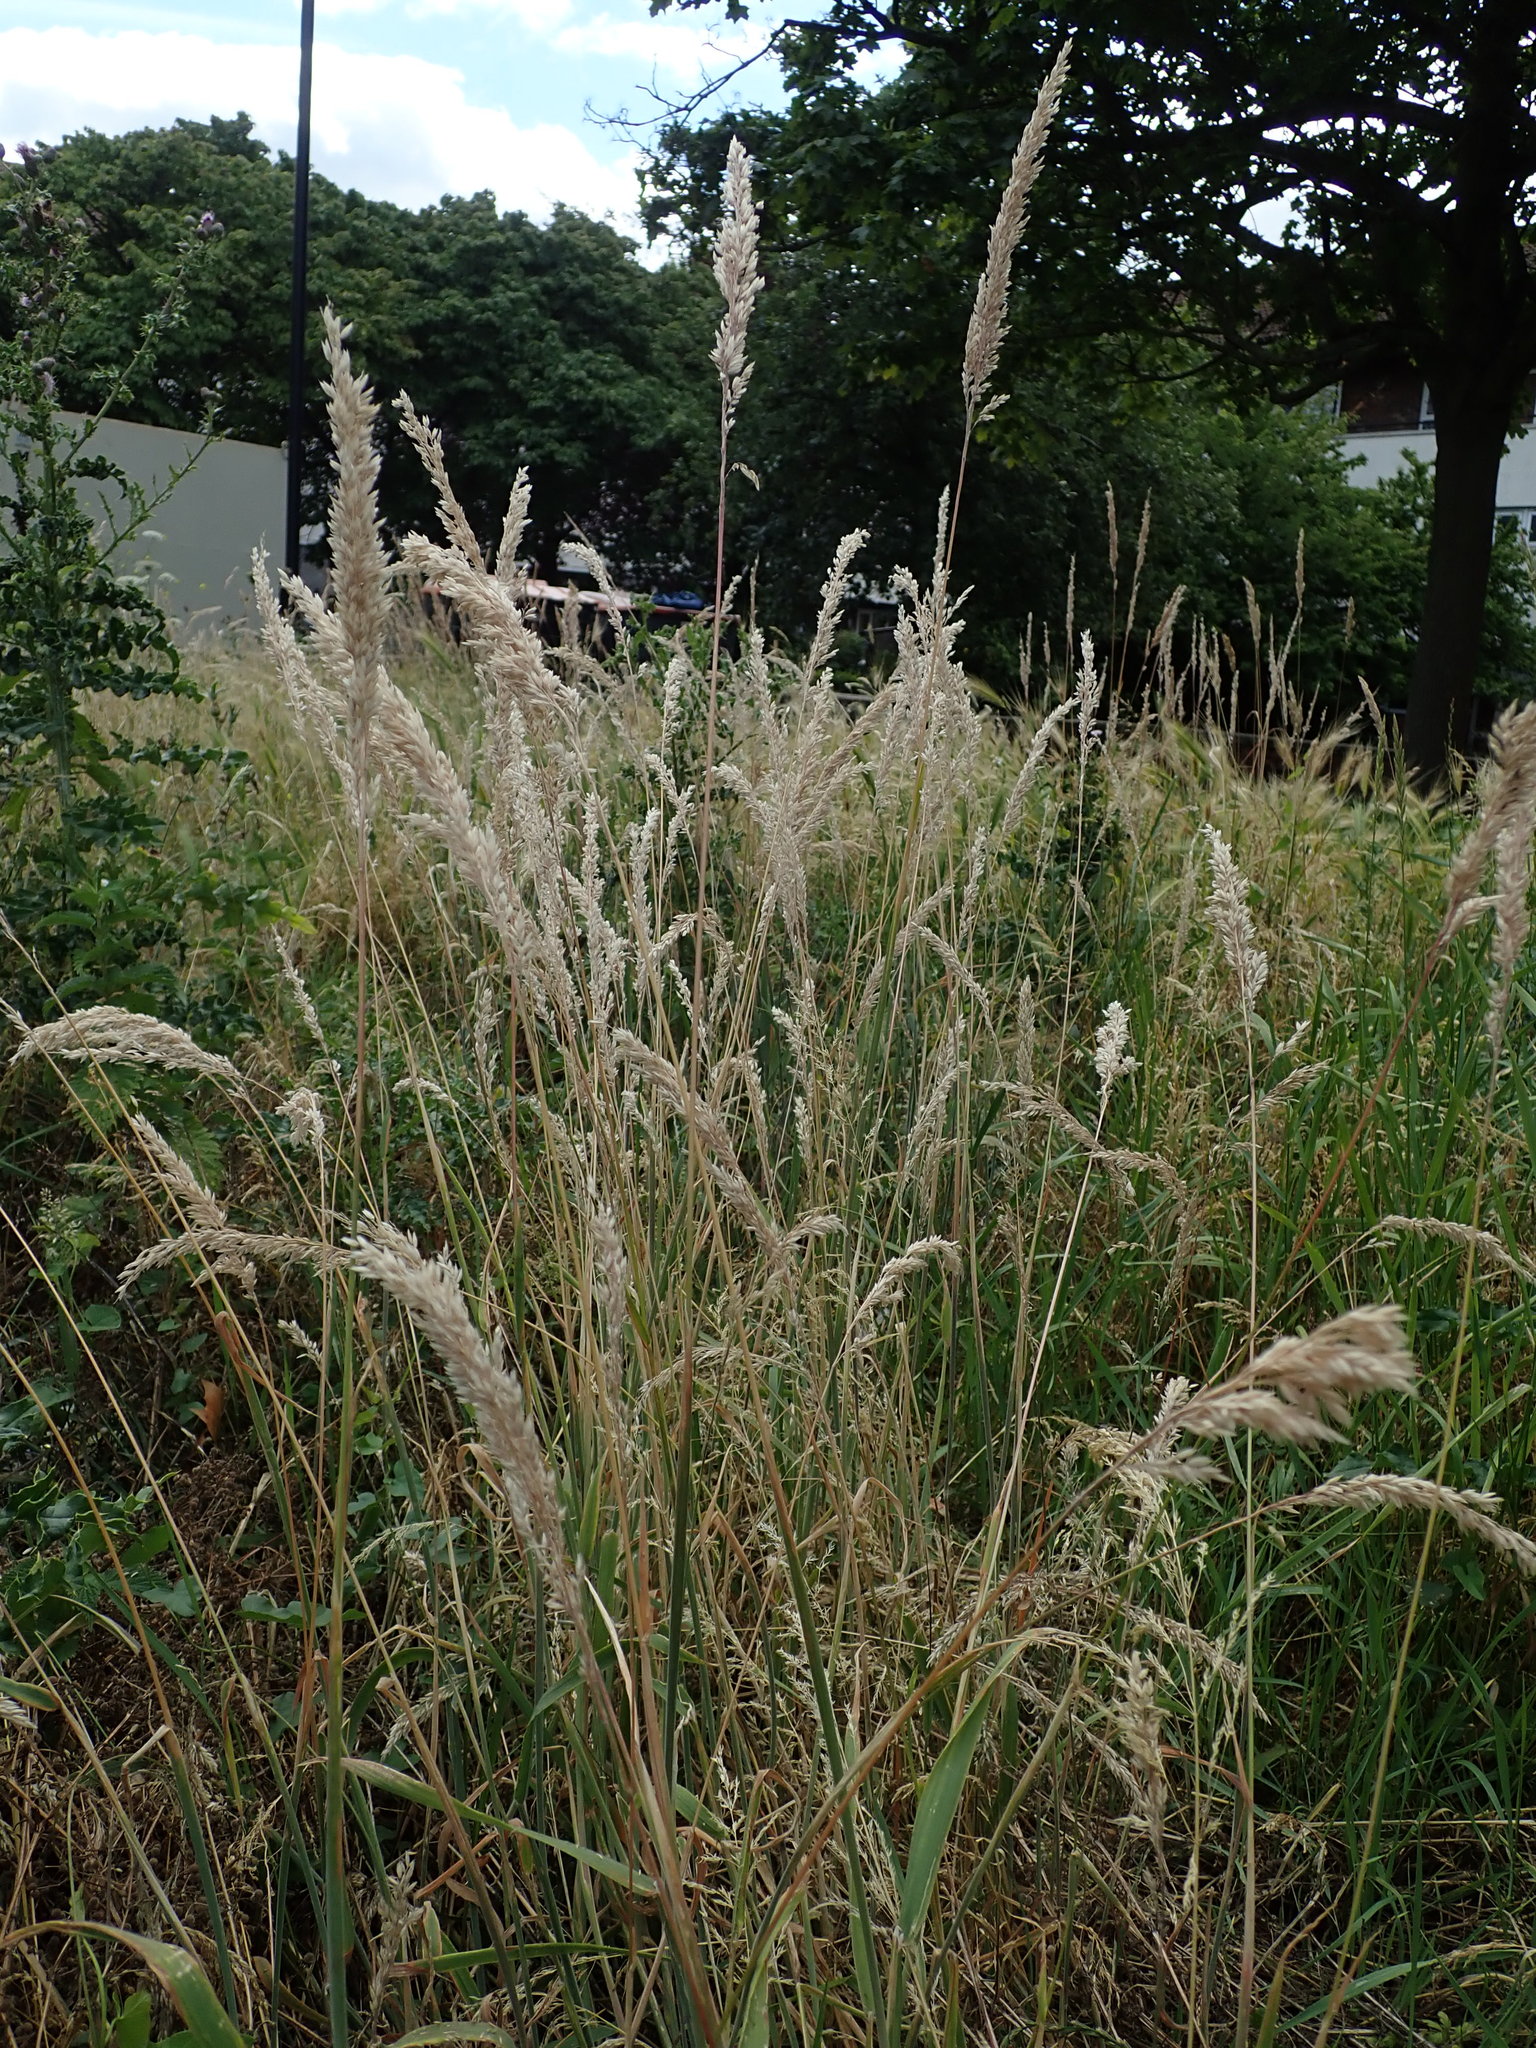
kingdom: Plantae
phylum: Tracheophyta
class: Liliopsida
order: Poales
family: Poaceae
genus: Holcus
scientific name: Holcus lanatus
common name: Yorkshire-fog
